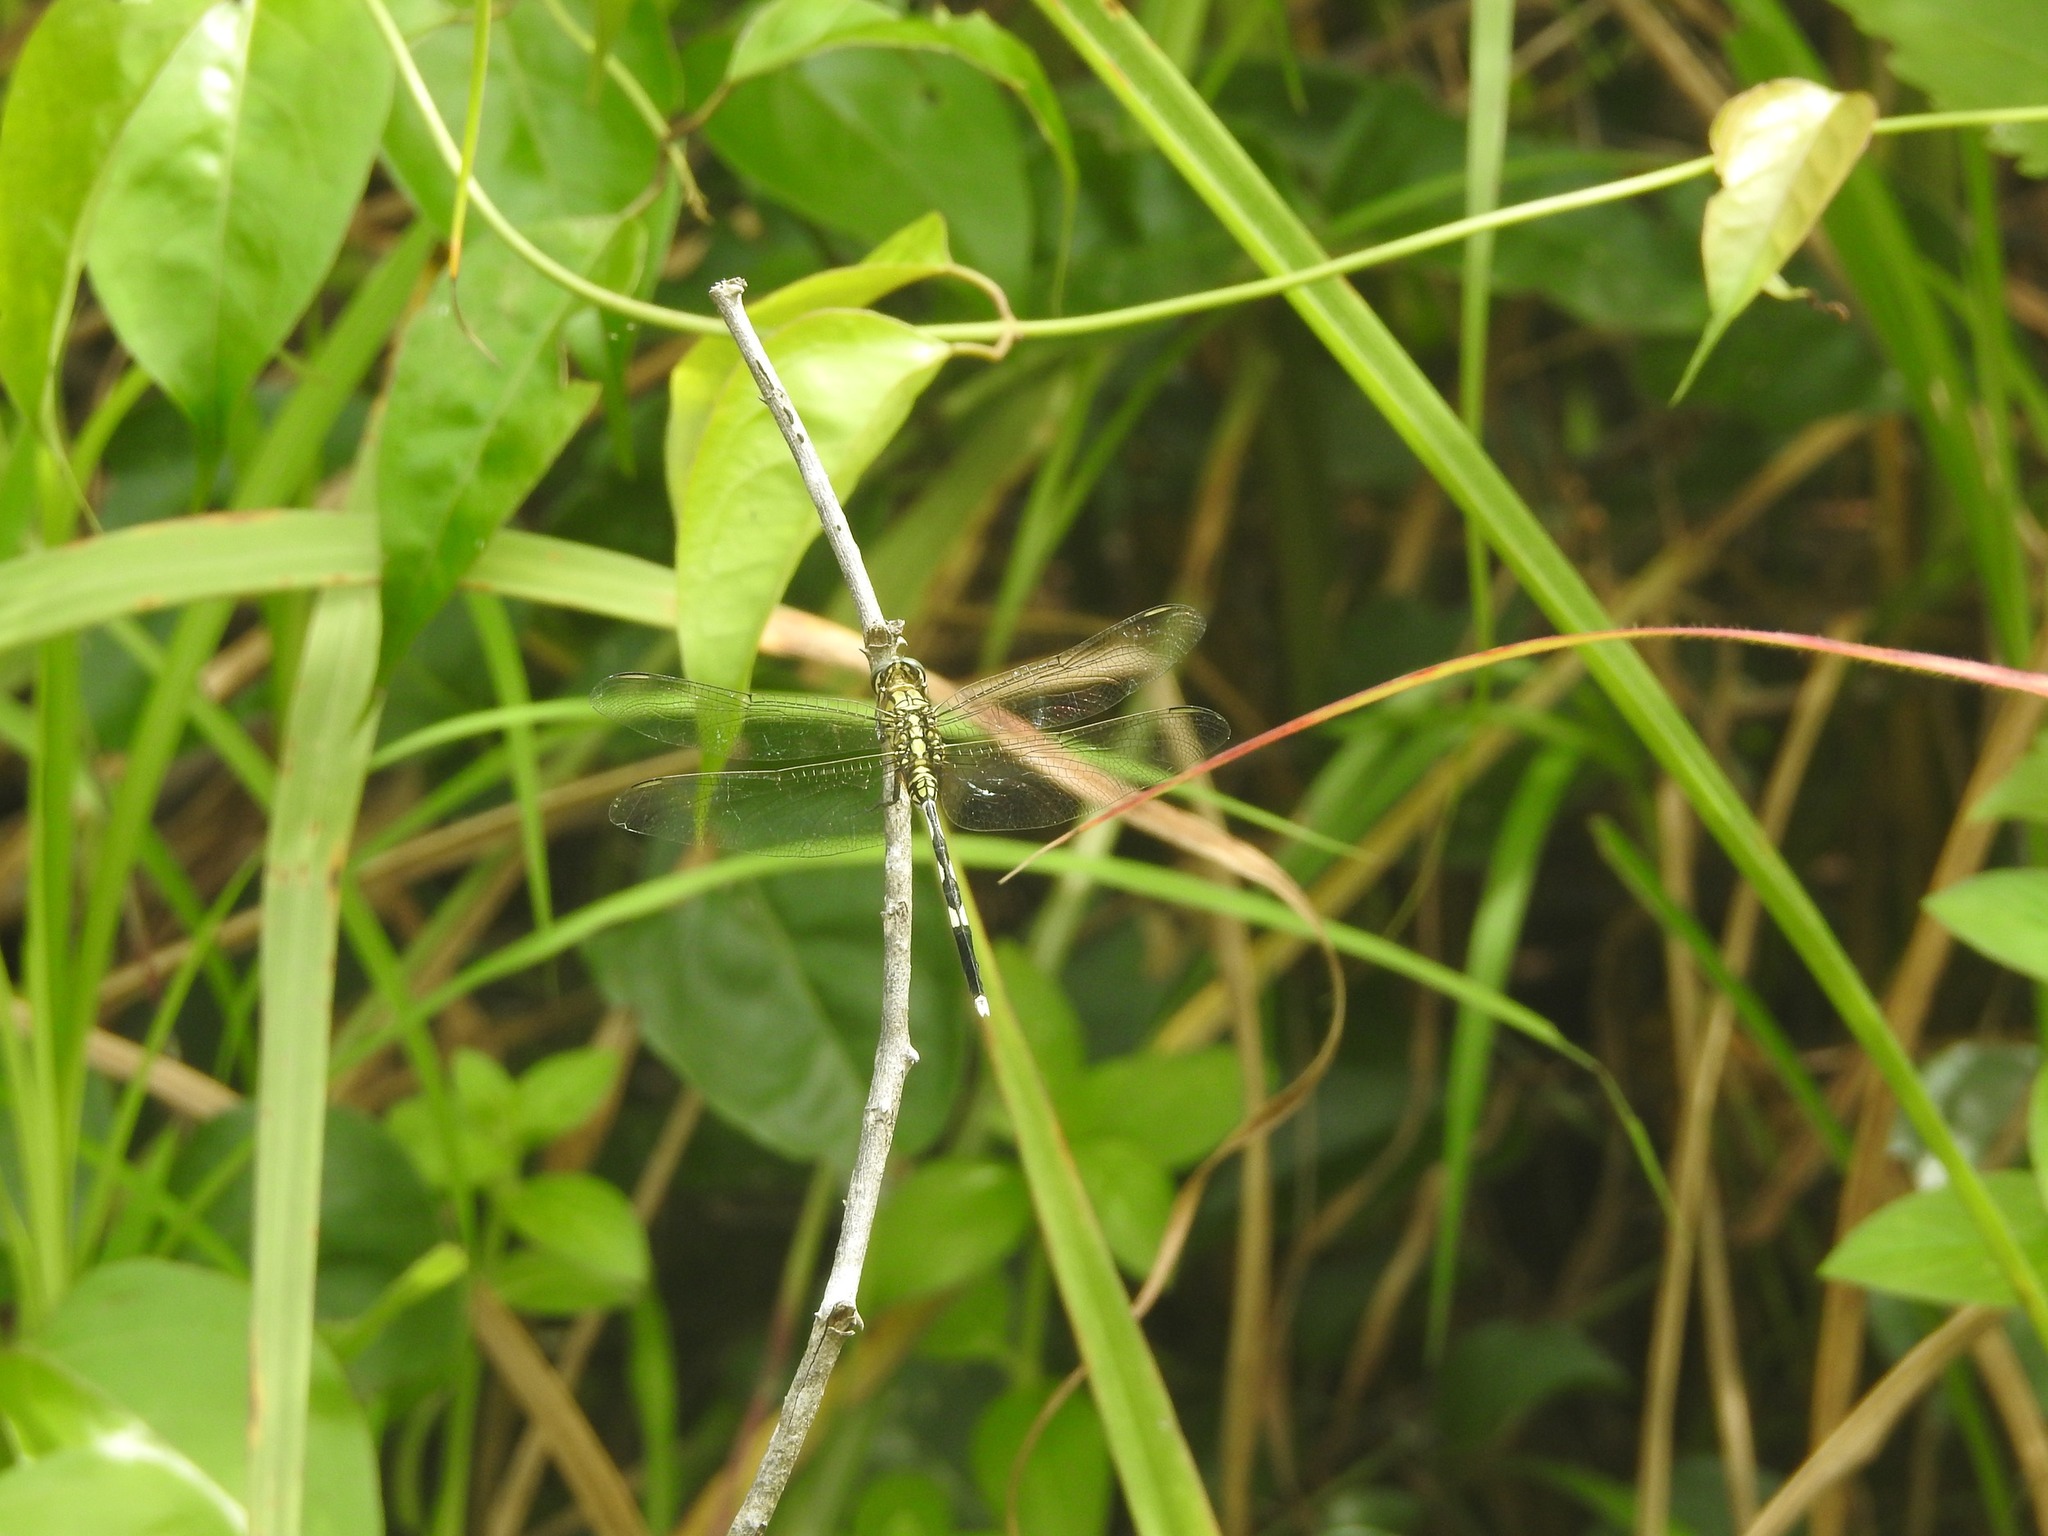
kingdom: Animalia
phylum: Arthropoda
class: Insecta
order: Odonata
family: Libellulidae
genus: Orthetrum
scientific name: Orthetrum sabina
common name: Slender skimmer
